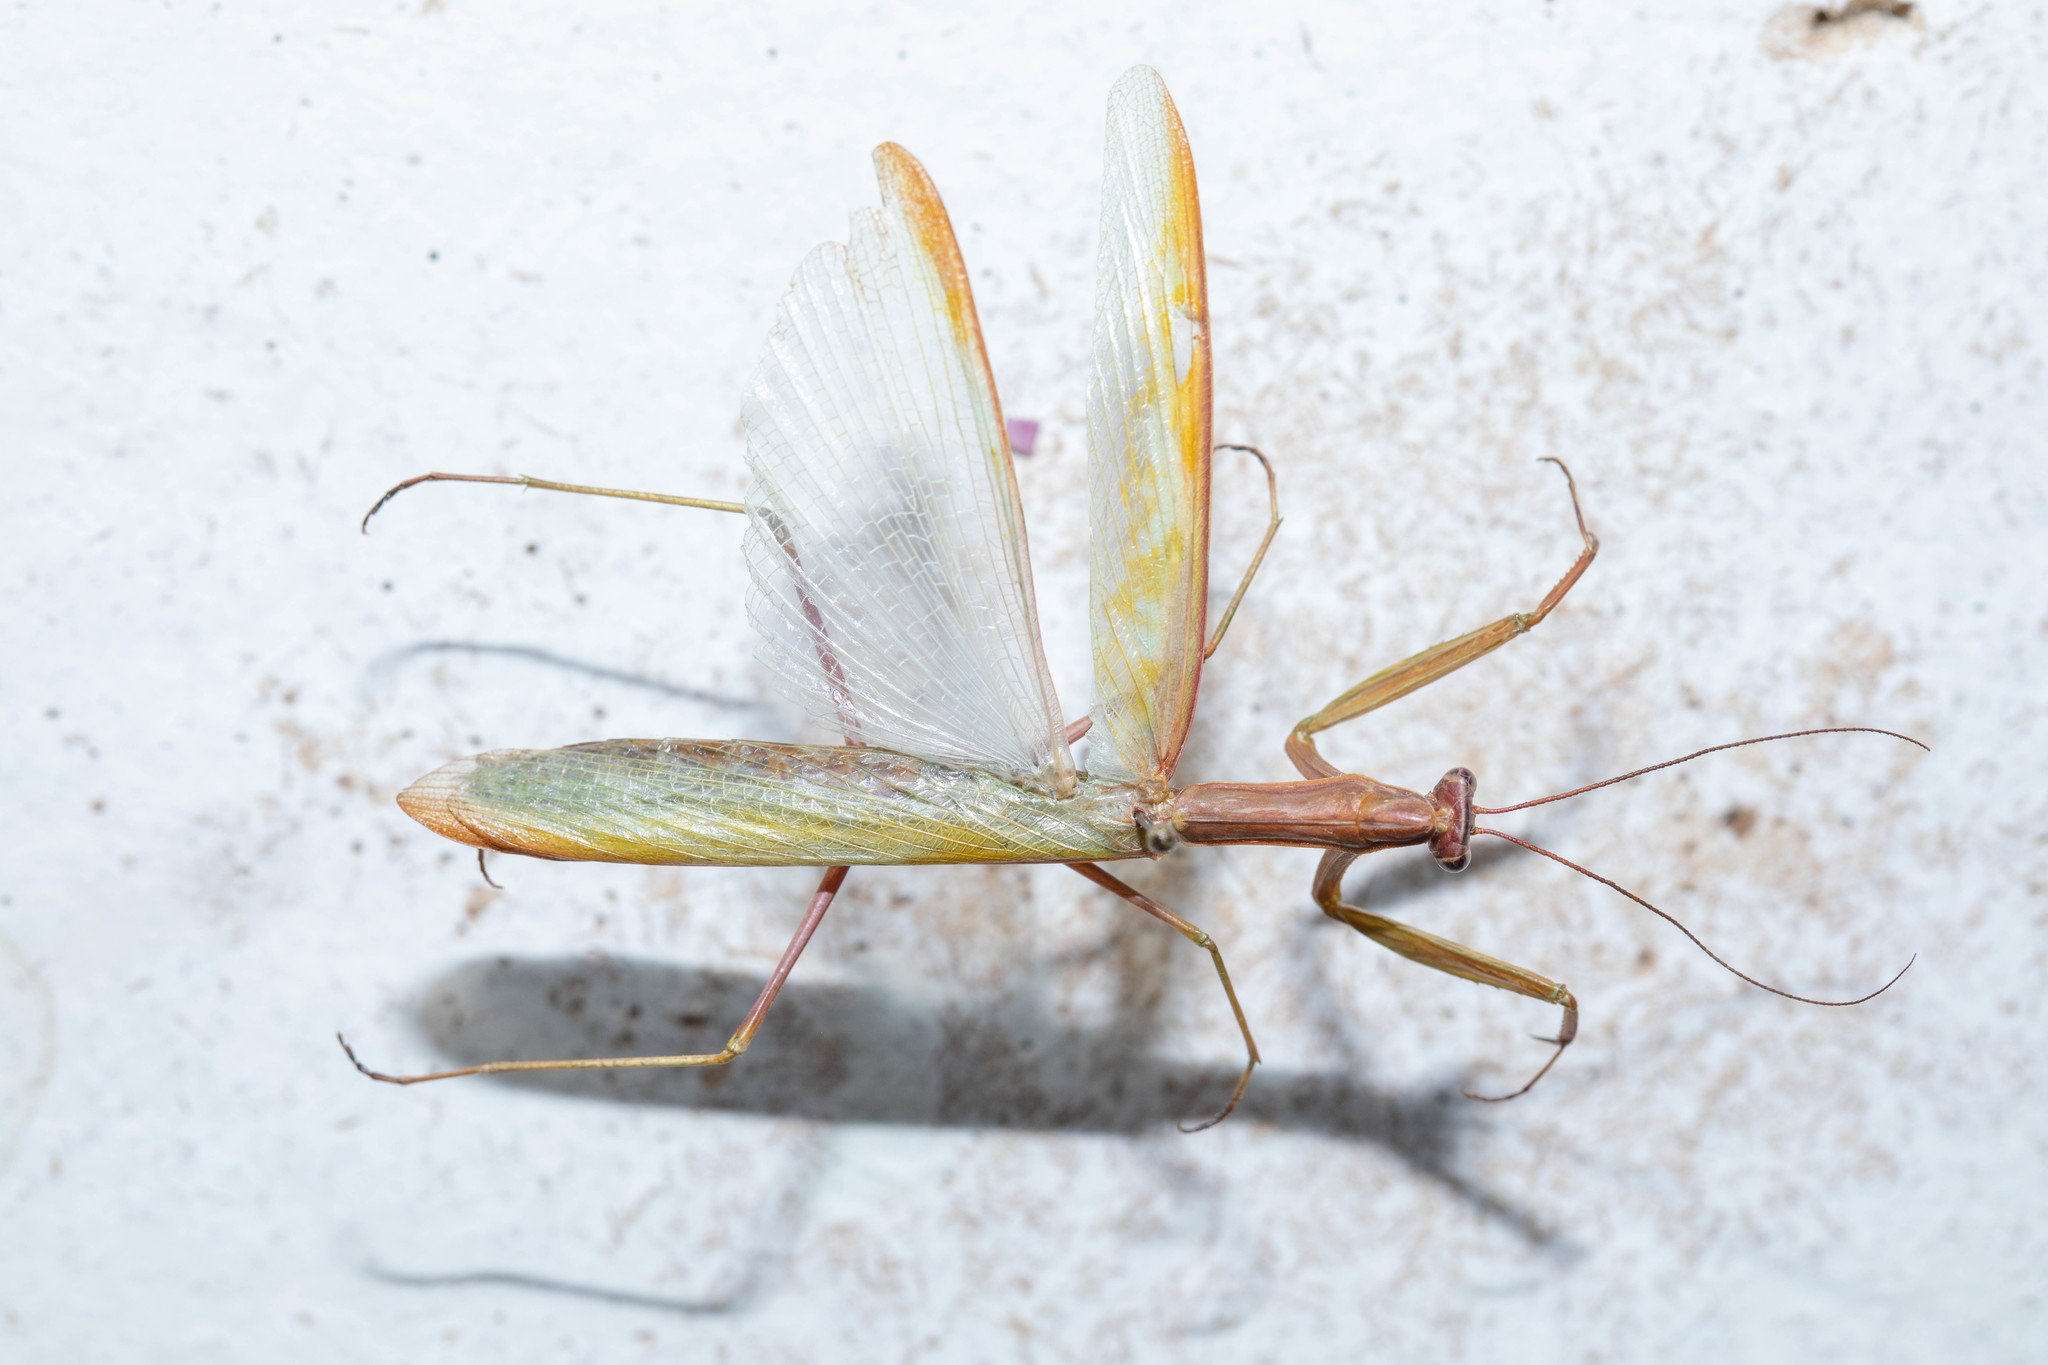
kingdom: Animalia
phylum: Arthropoda
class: Insecta
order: Mantodea
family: Mantidae
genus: Mantis
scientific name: Mantis religiosa
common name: Praying mantis
